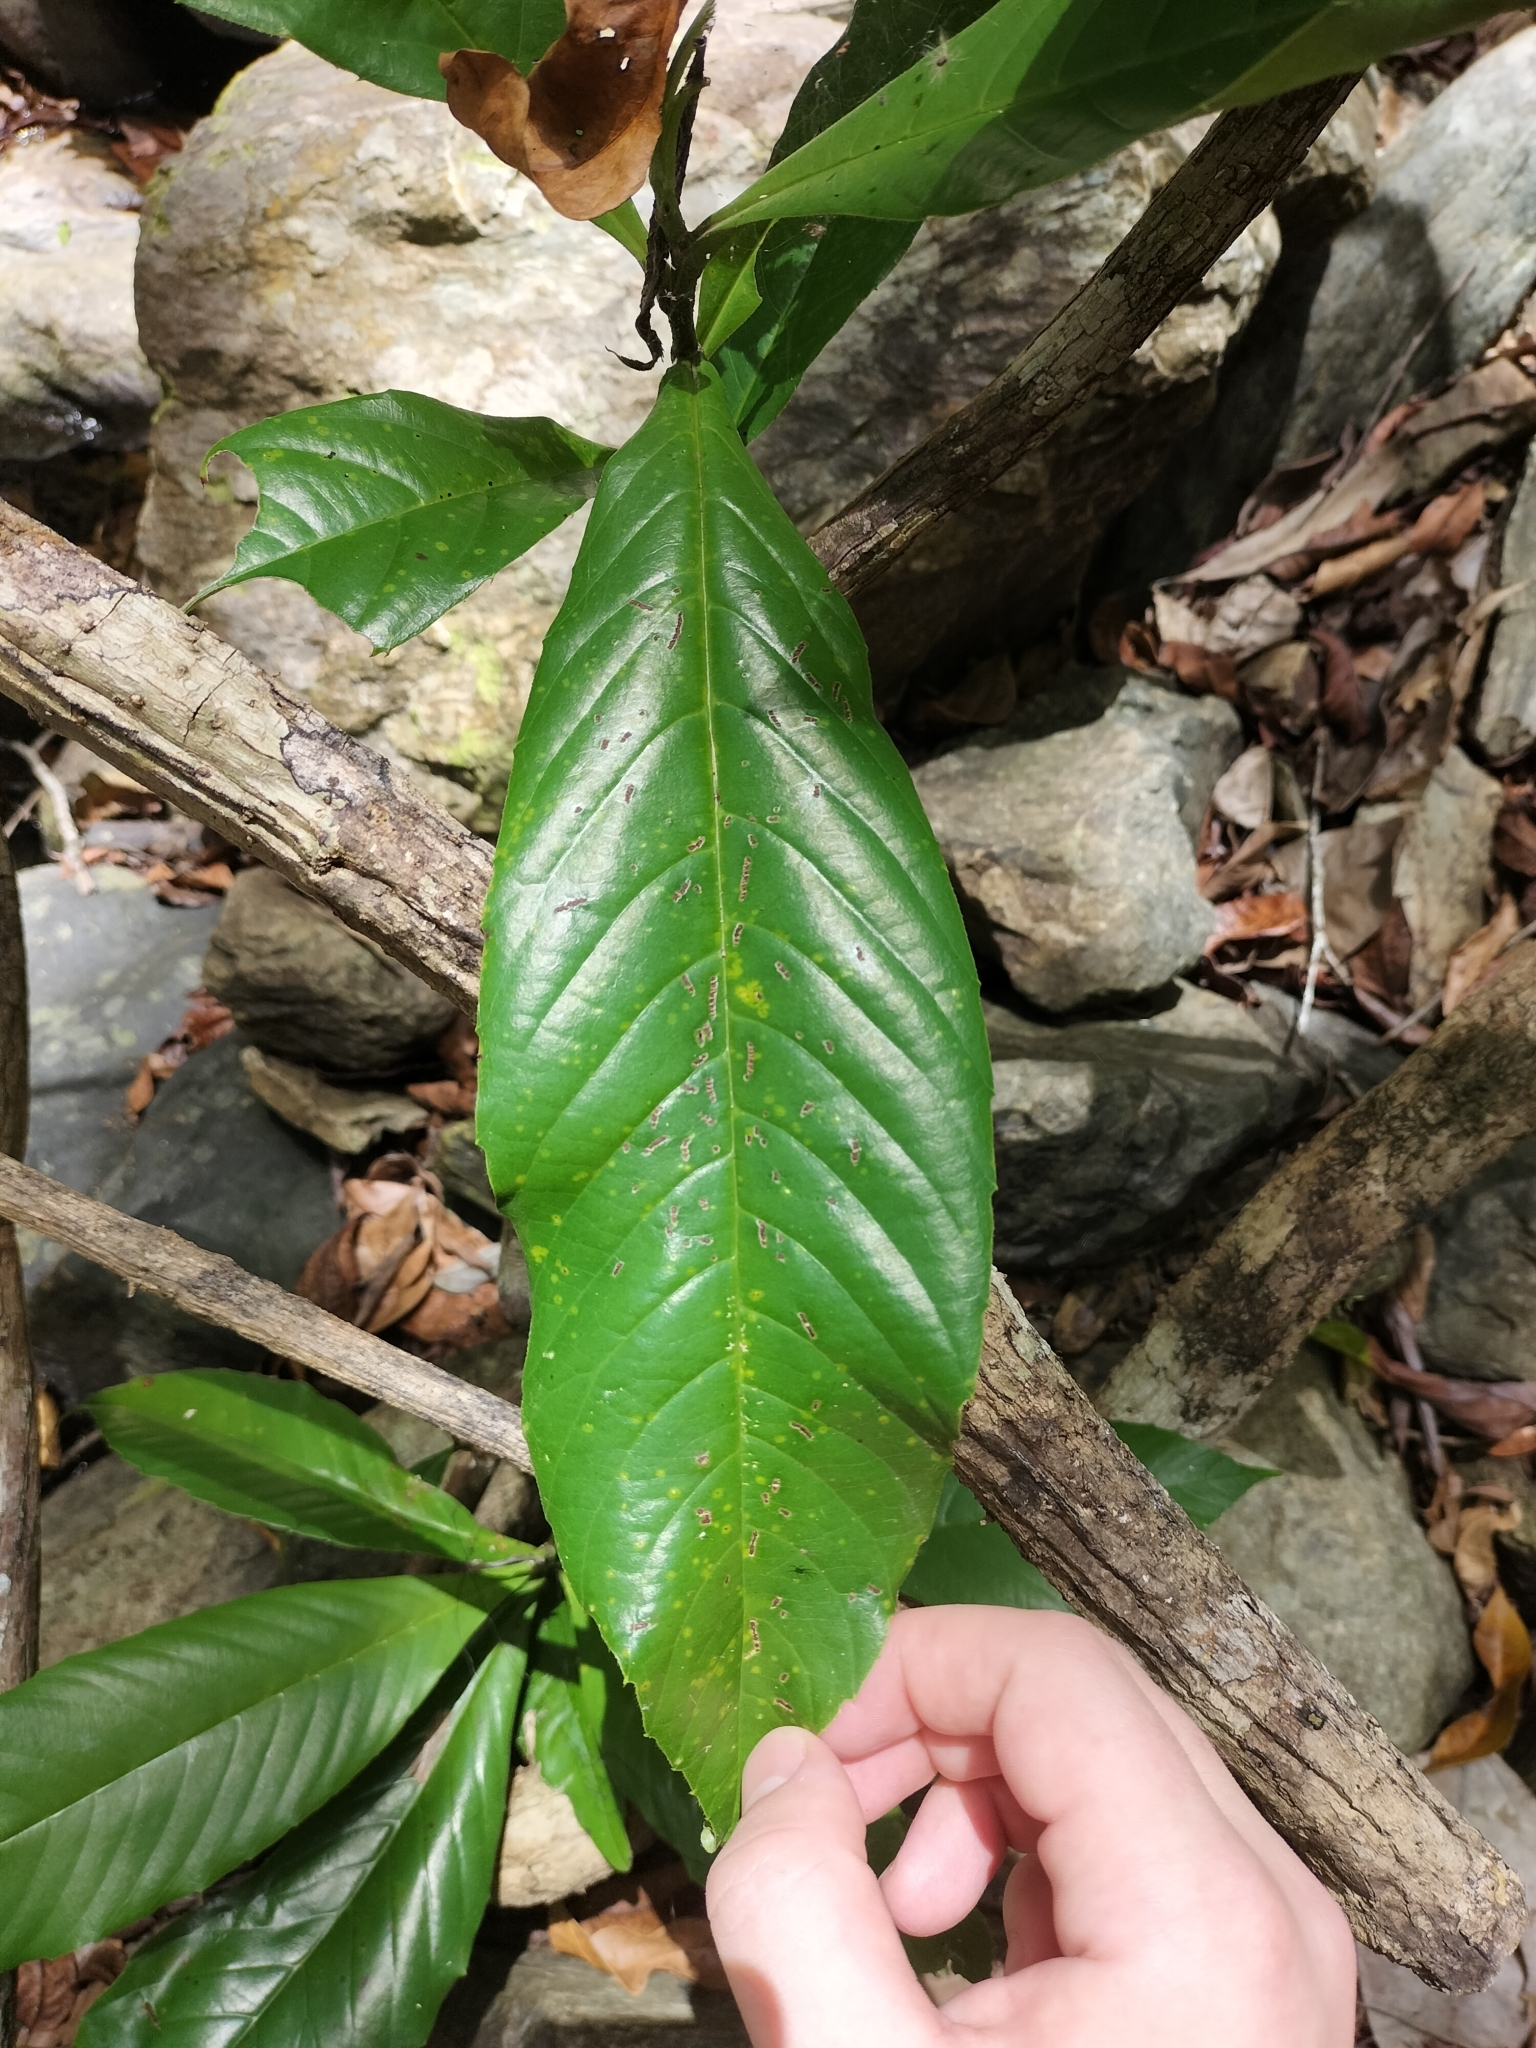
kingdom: Plantae
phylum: Tracheophyta
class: Magnoliopsida
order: Dilleniales
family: Dilleniaceae
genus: Tetracera
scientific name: Tetracera daemeliana
